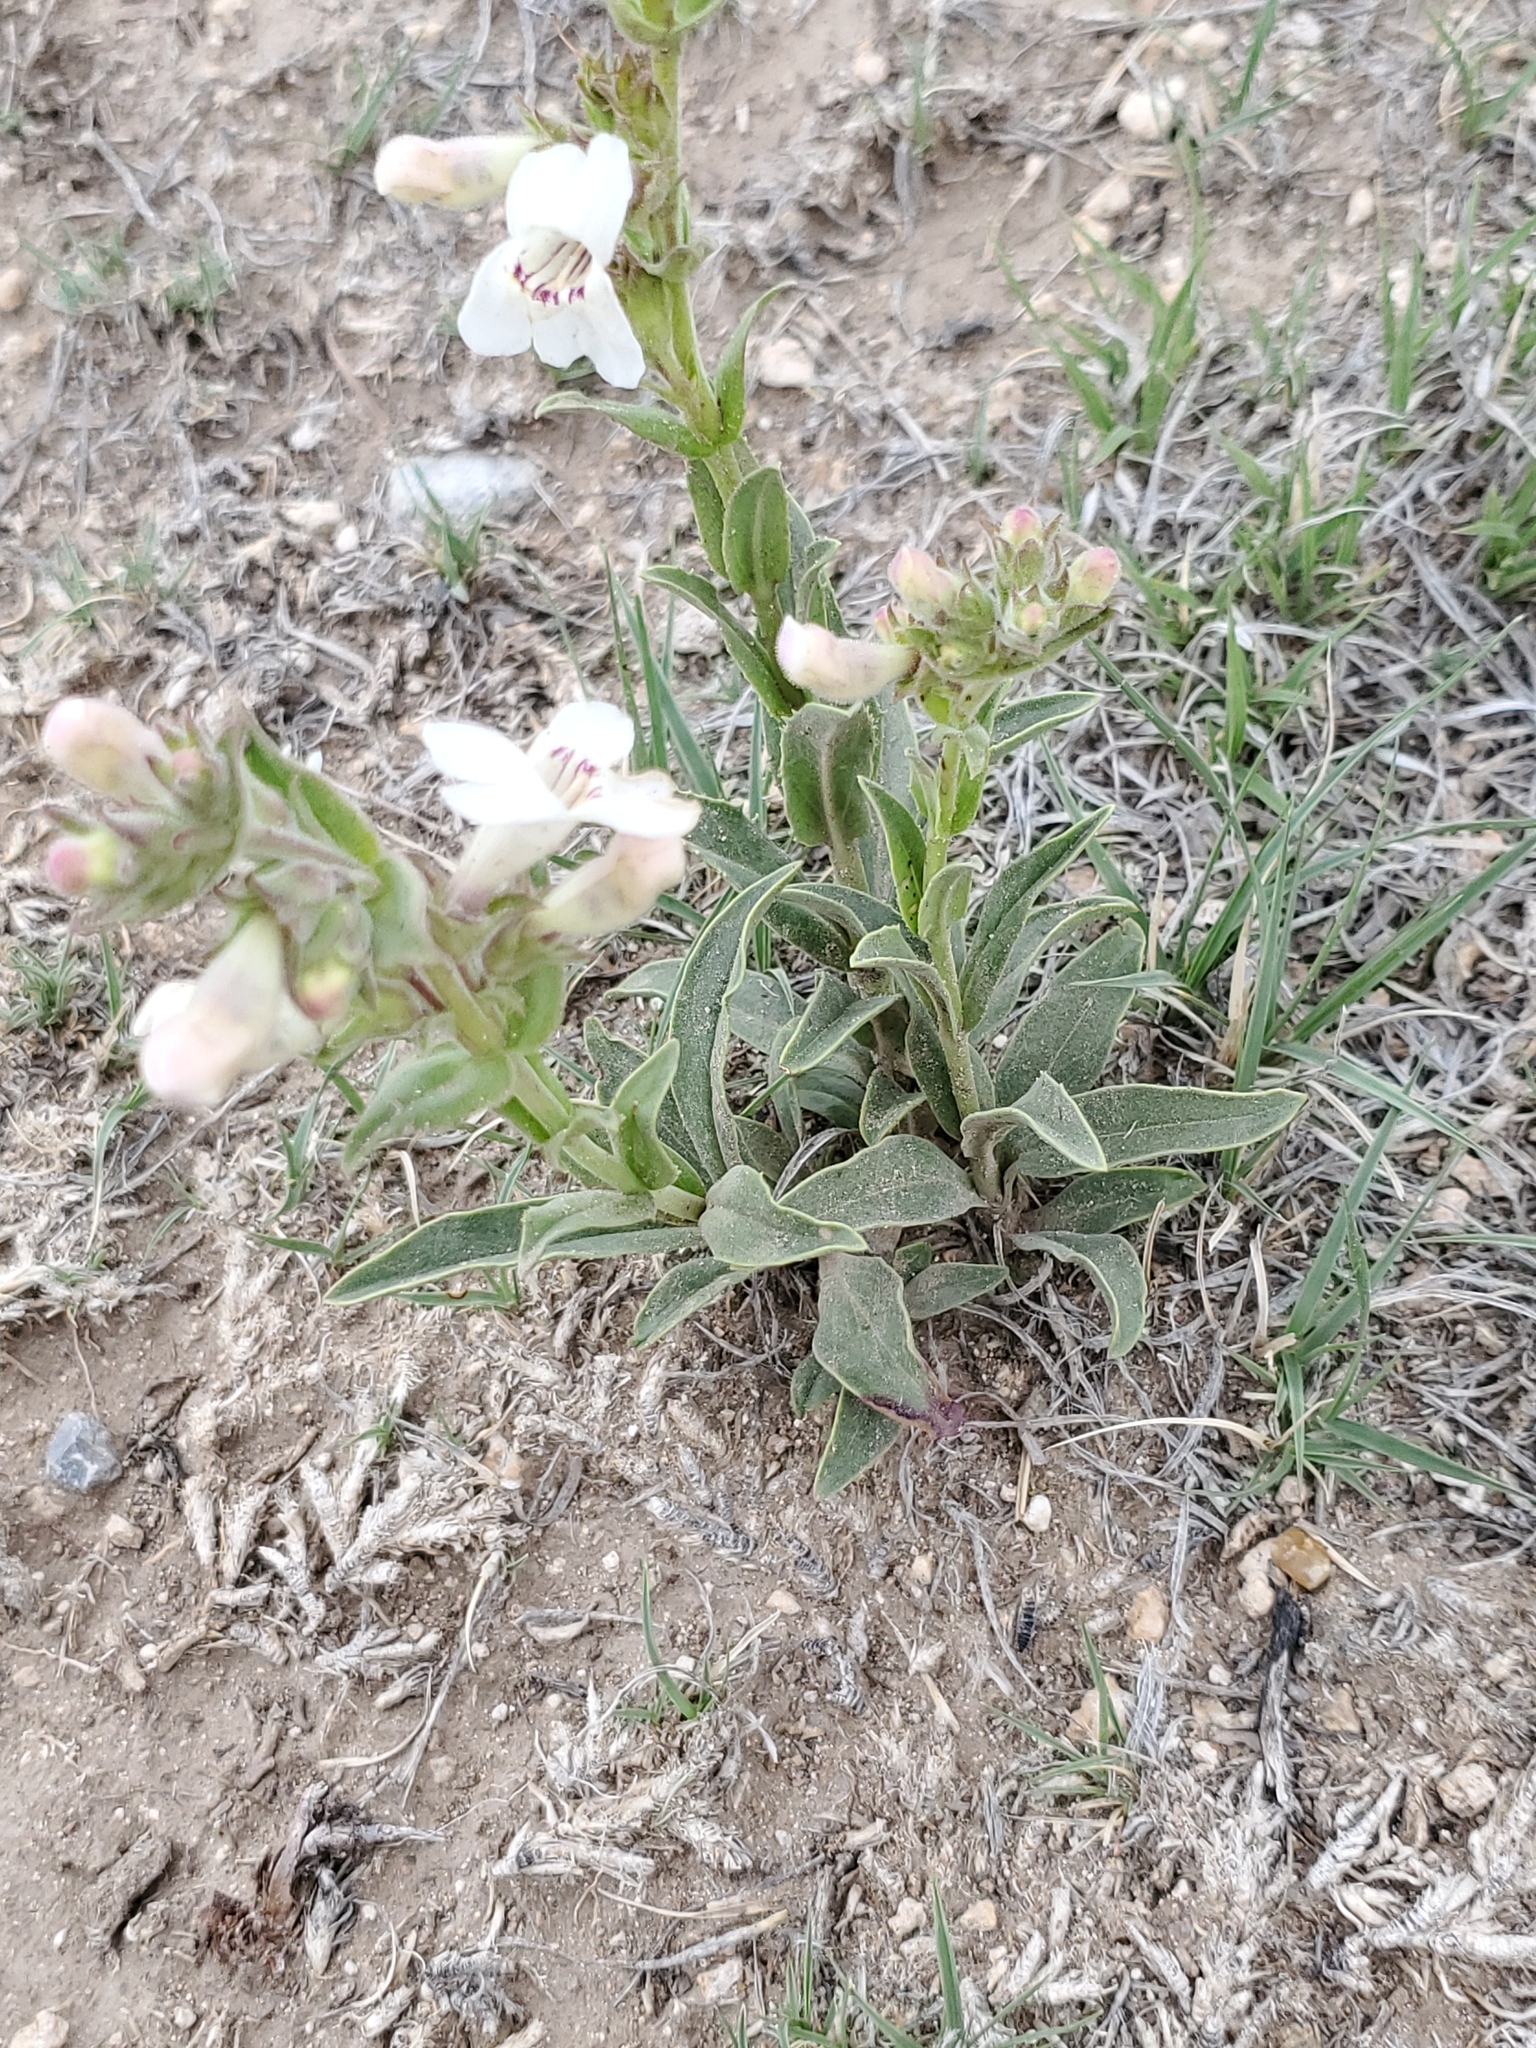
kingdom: Plantae
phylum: Tracheophyta
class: Magnoliopsida
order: Lamiales
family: Plantaginaceae
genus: Penstemon
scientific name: Penstemon albidus
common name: White beardtongue
